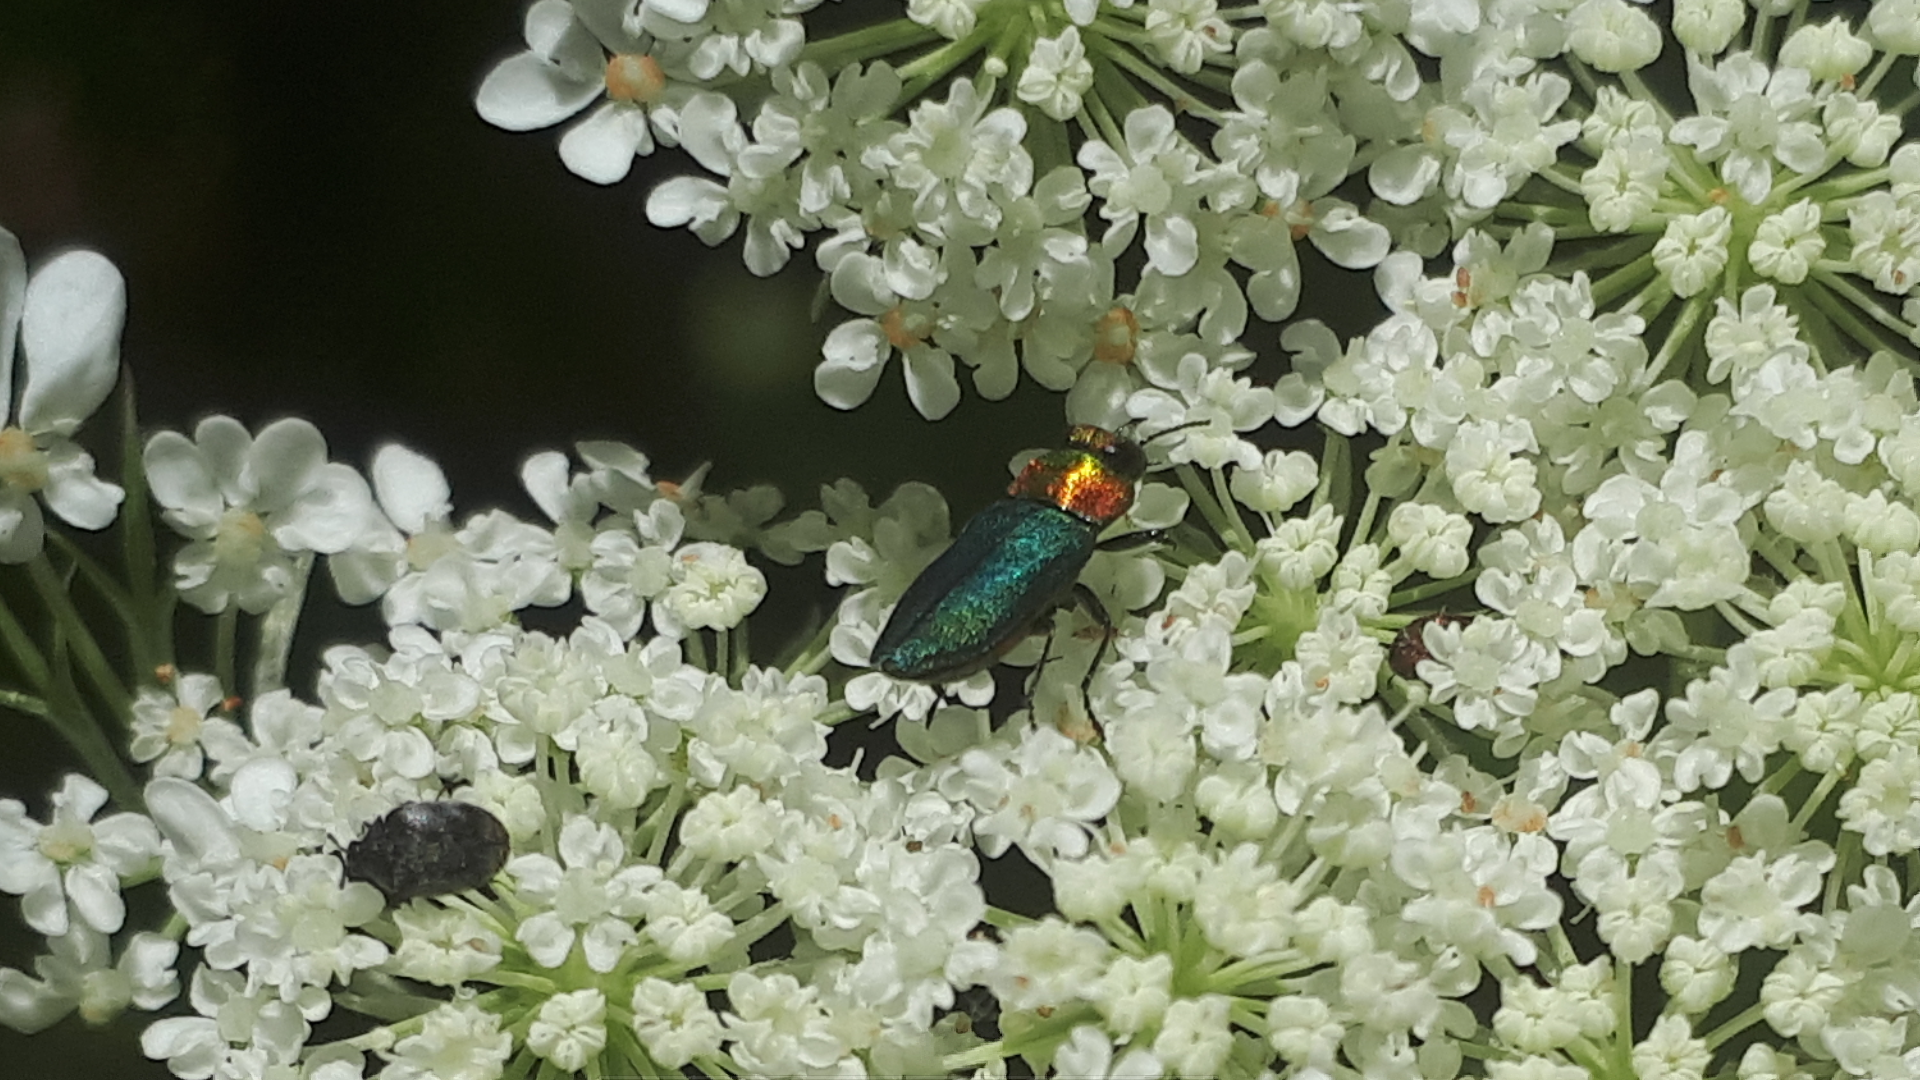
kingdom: Animalia
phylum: Arthropoda
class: Insecta
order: Coleoptera
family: Buprestidae
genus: Anthaxia
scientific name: Anthaxia nitidula
